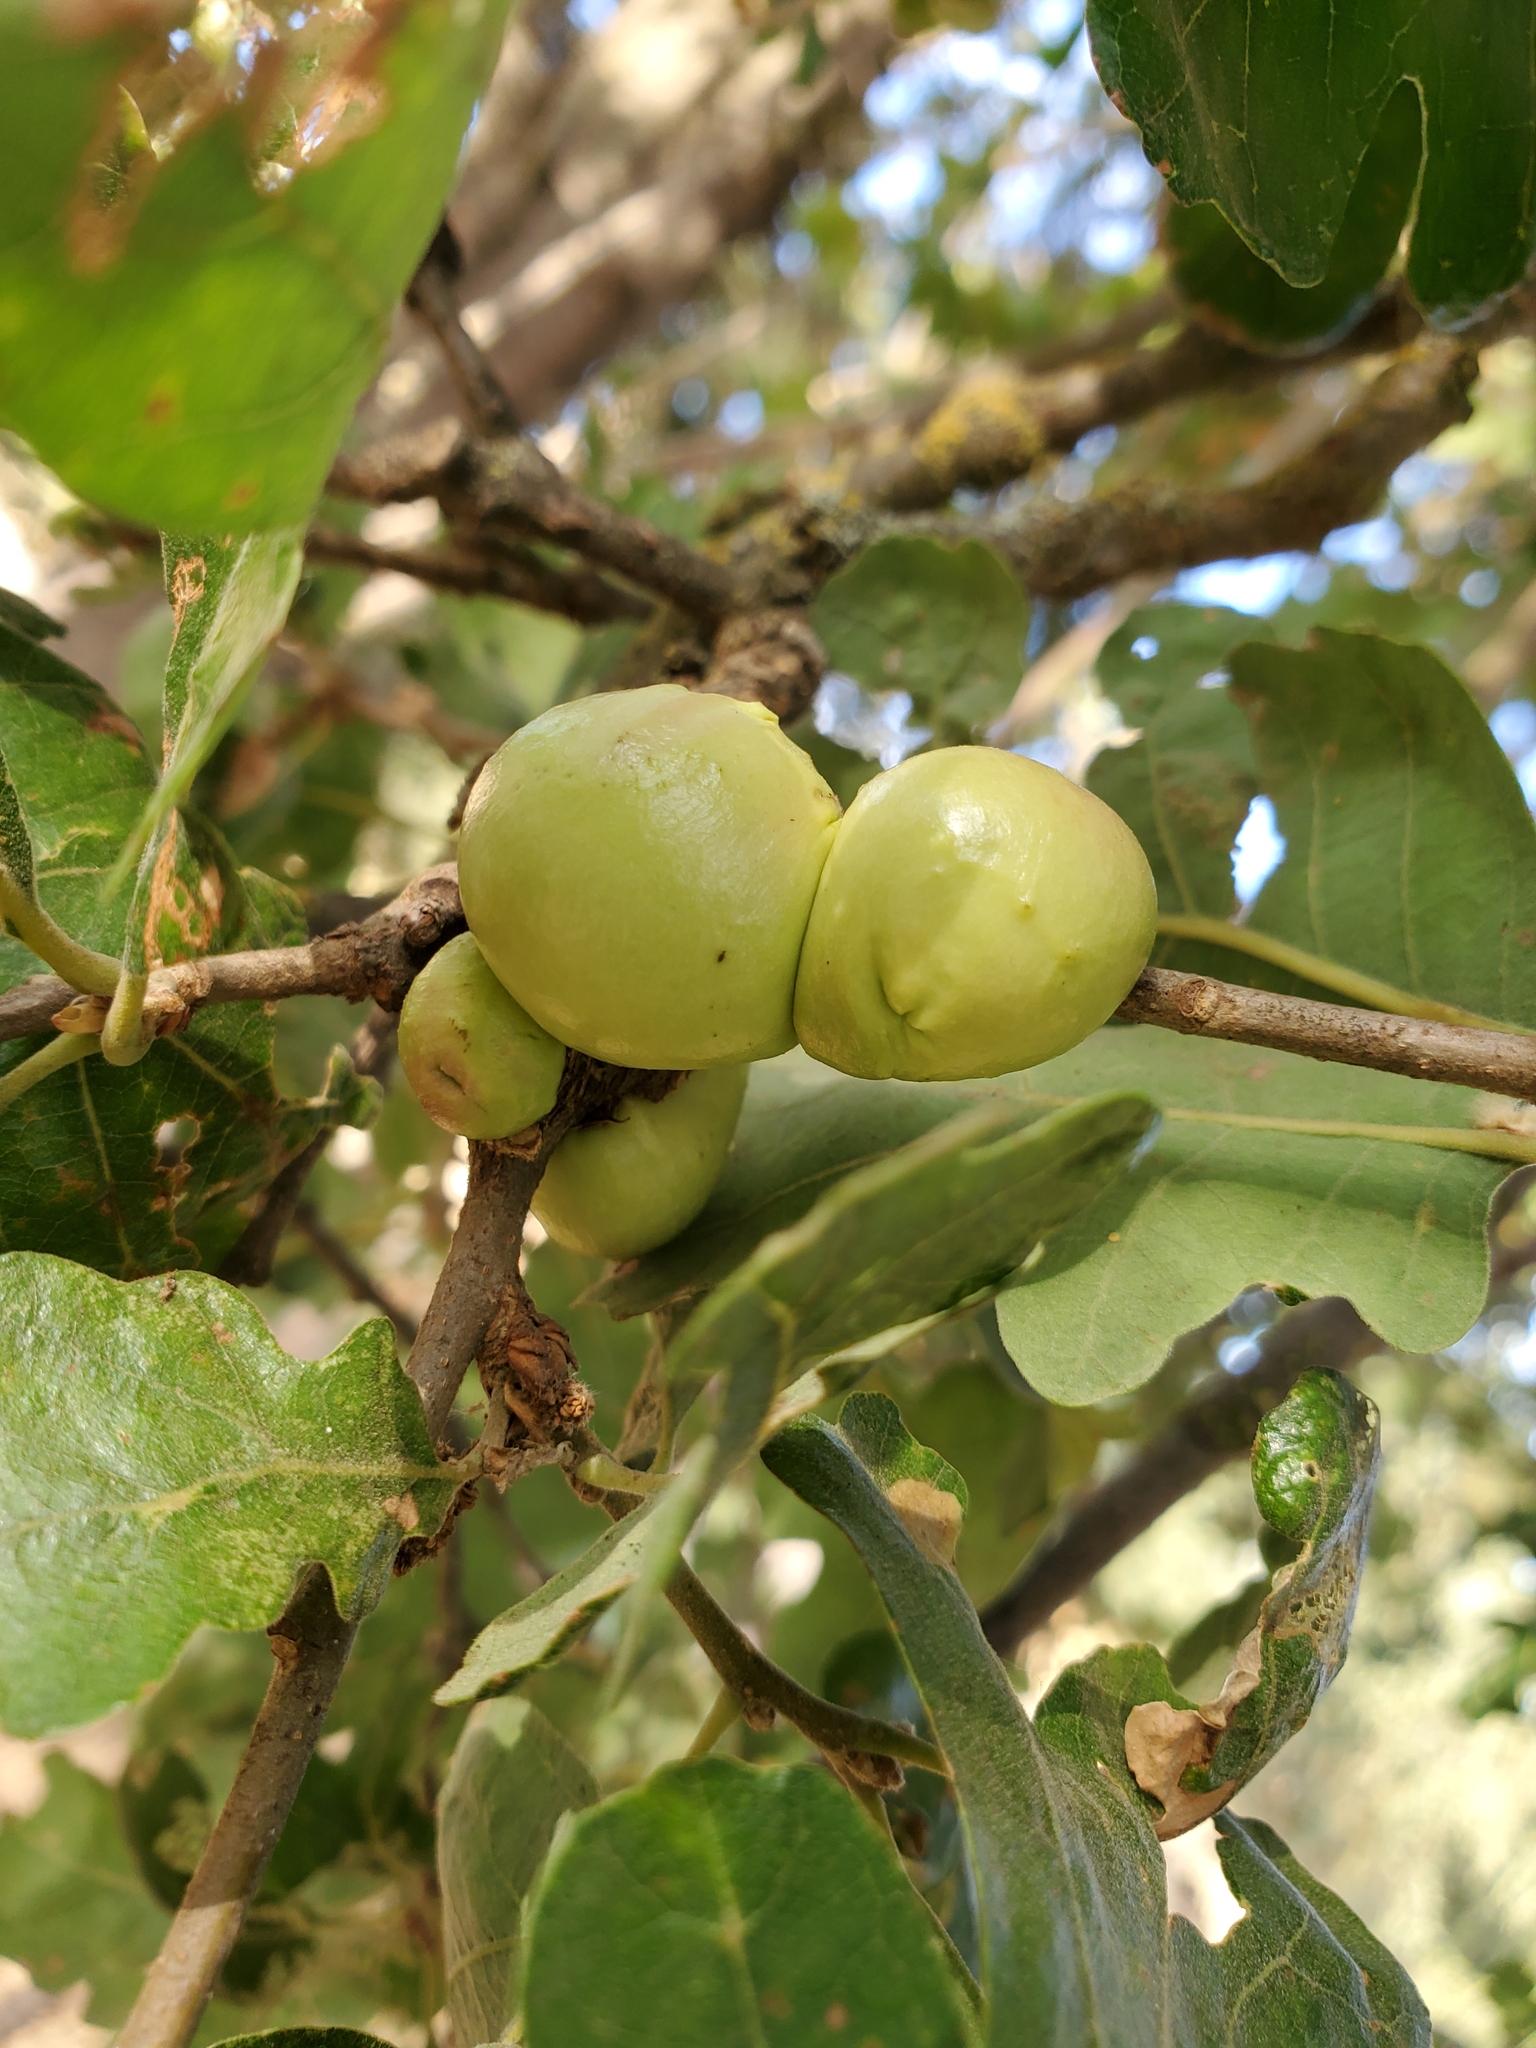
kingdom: Animalia
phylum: Arthropoda
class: Insecta
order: Hymenoptera
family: Cynipidae
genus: Andricus
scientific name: Andricus quercuscalifornicus
